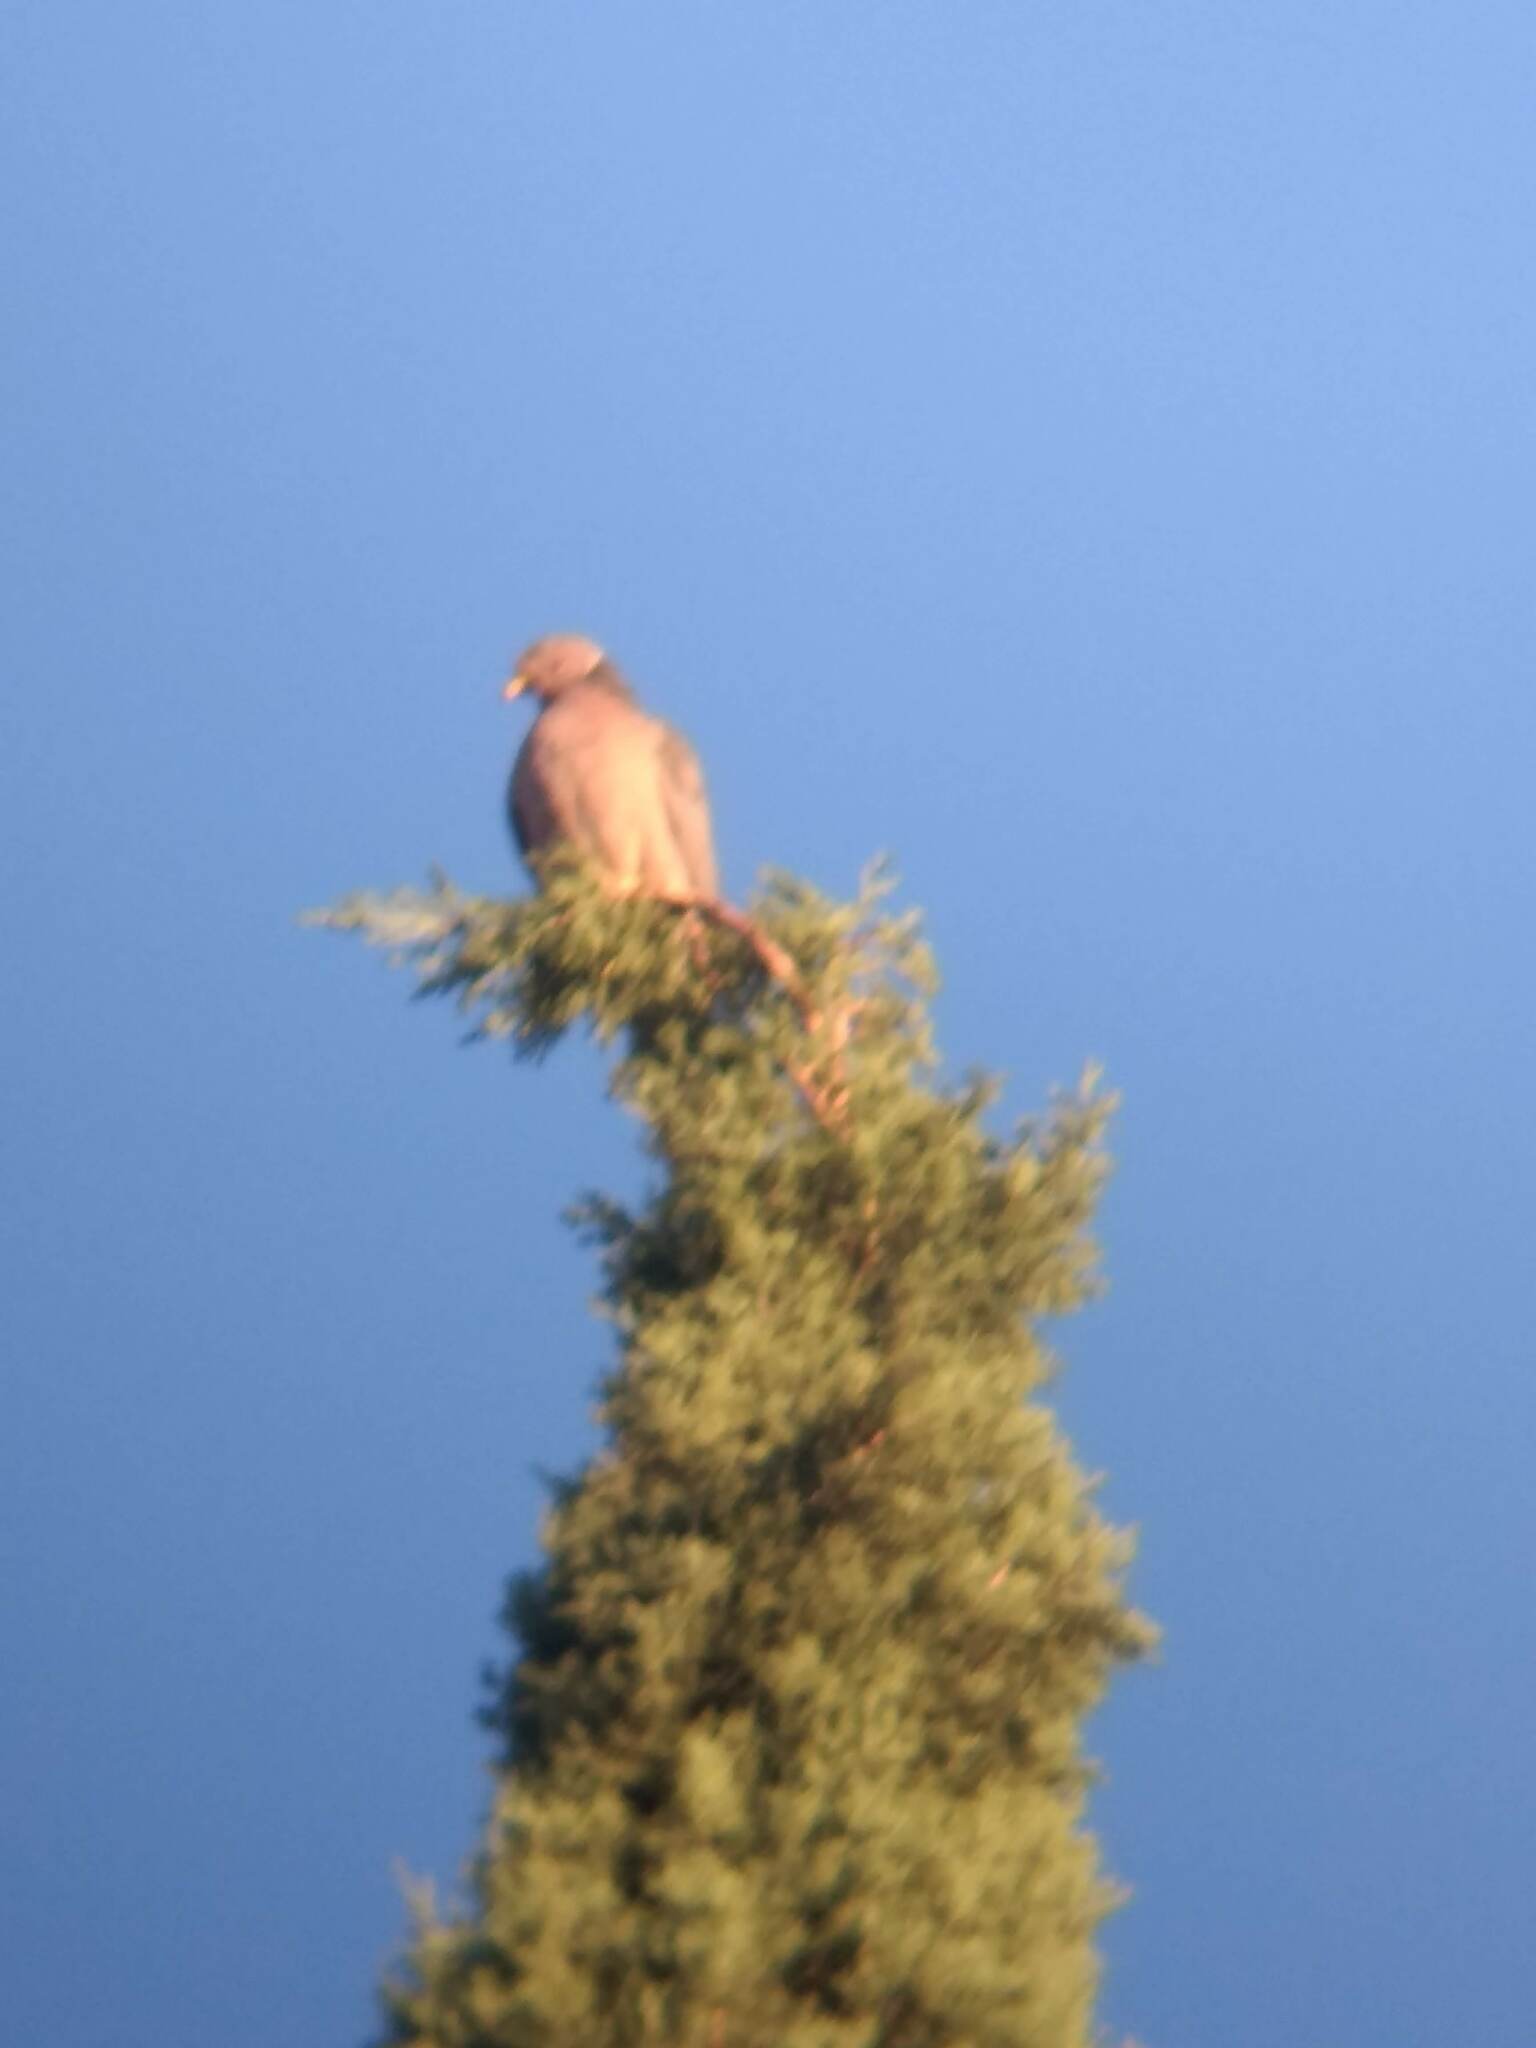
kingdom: Animalia
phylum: Chordata
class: Aves
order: Columbiformes
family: Columbidae
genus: Patagioenas
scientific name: Patagioenas fasciata
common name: Band-tailed pigeon
